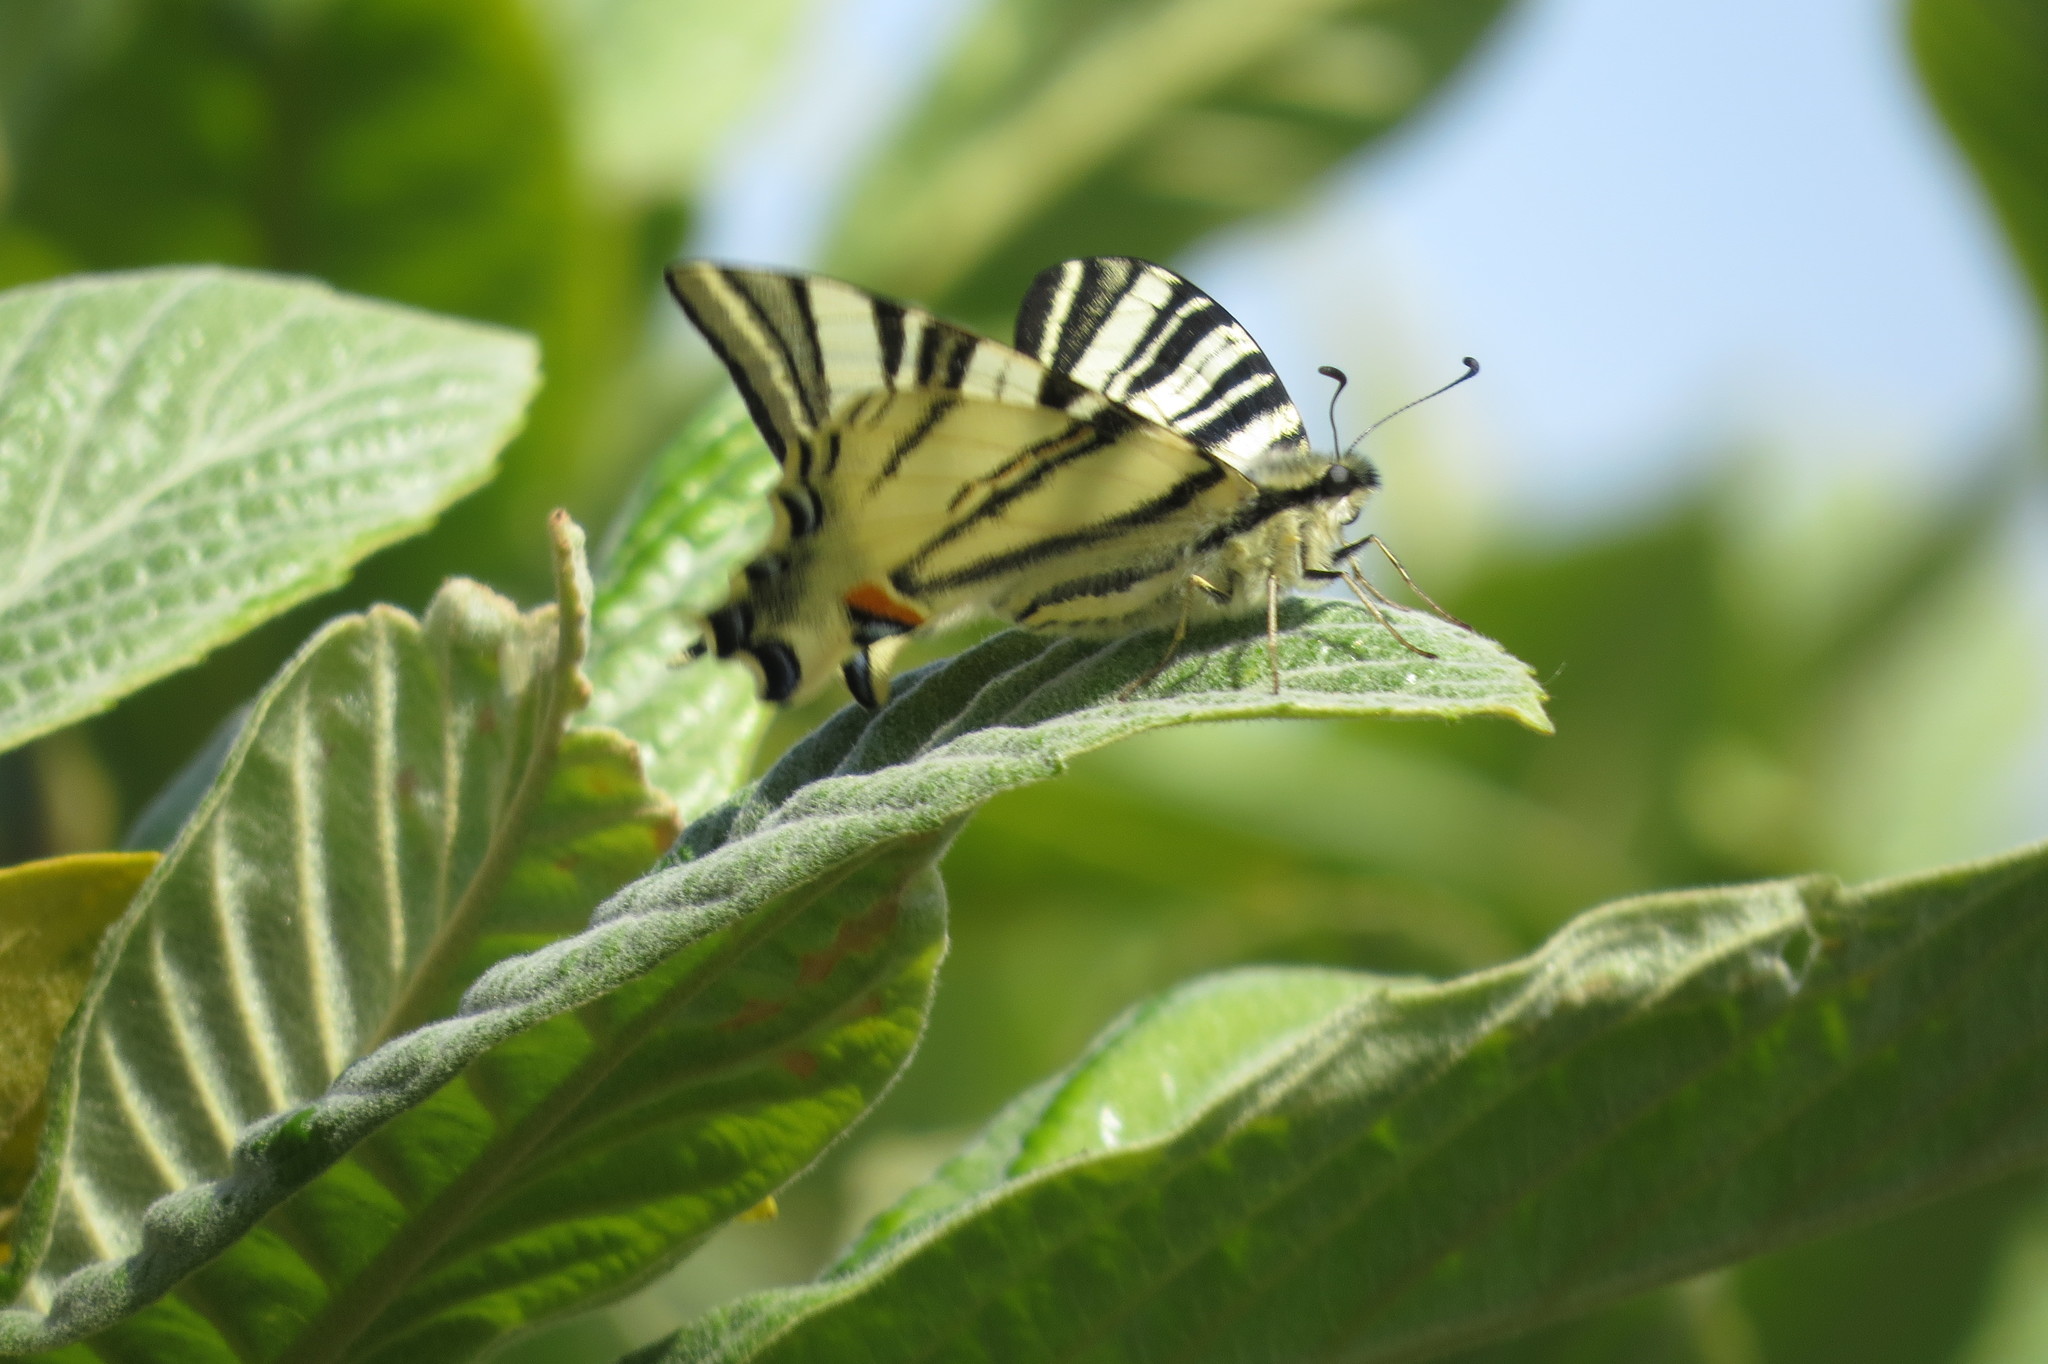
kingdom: Animalia
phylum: Arthropoda
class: Insecta
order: Lepidoptera
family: Papilionidae
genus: Iphiclides
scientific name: Iphiclides podalirius
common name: Scarce swallowtail
